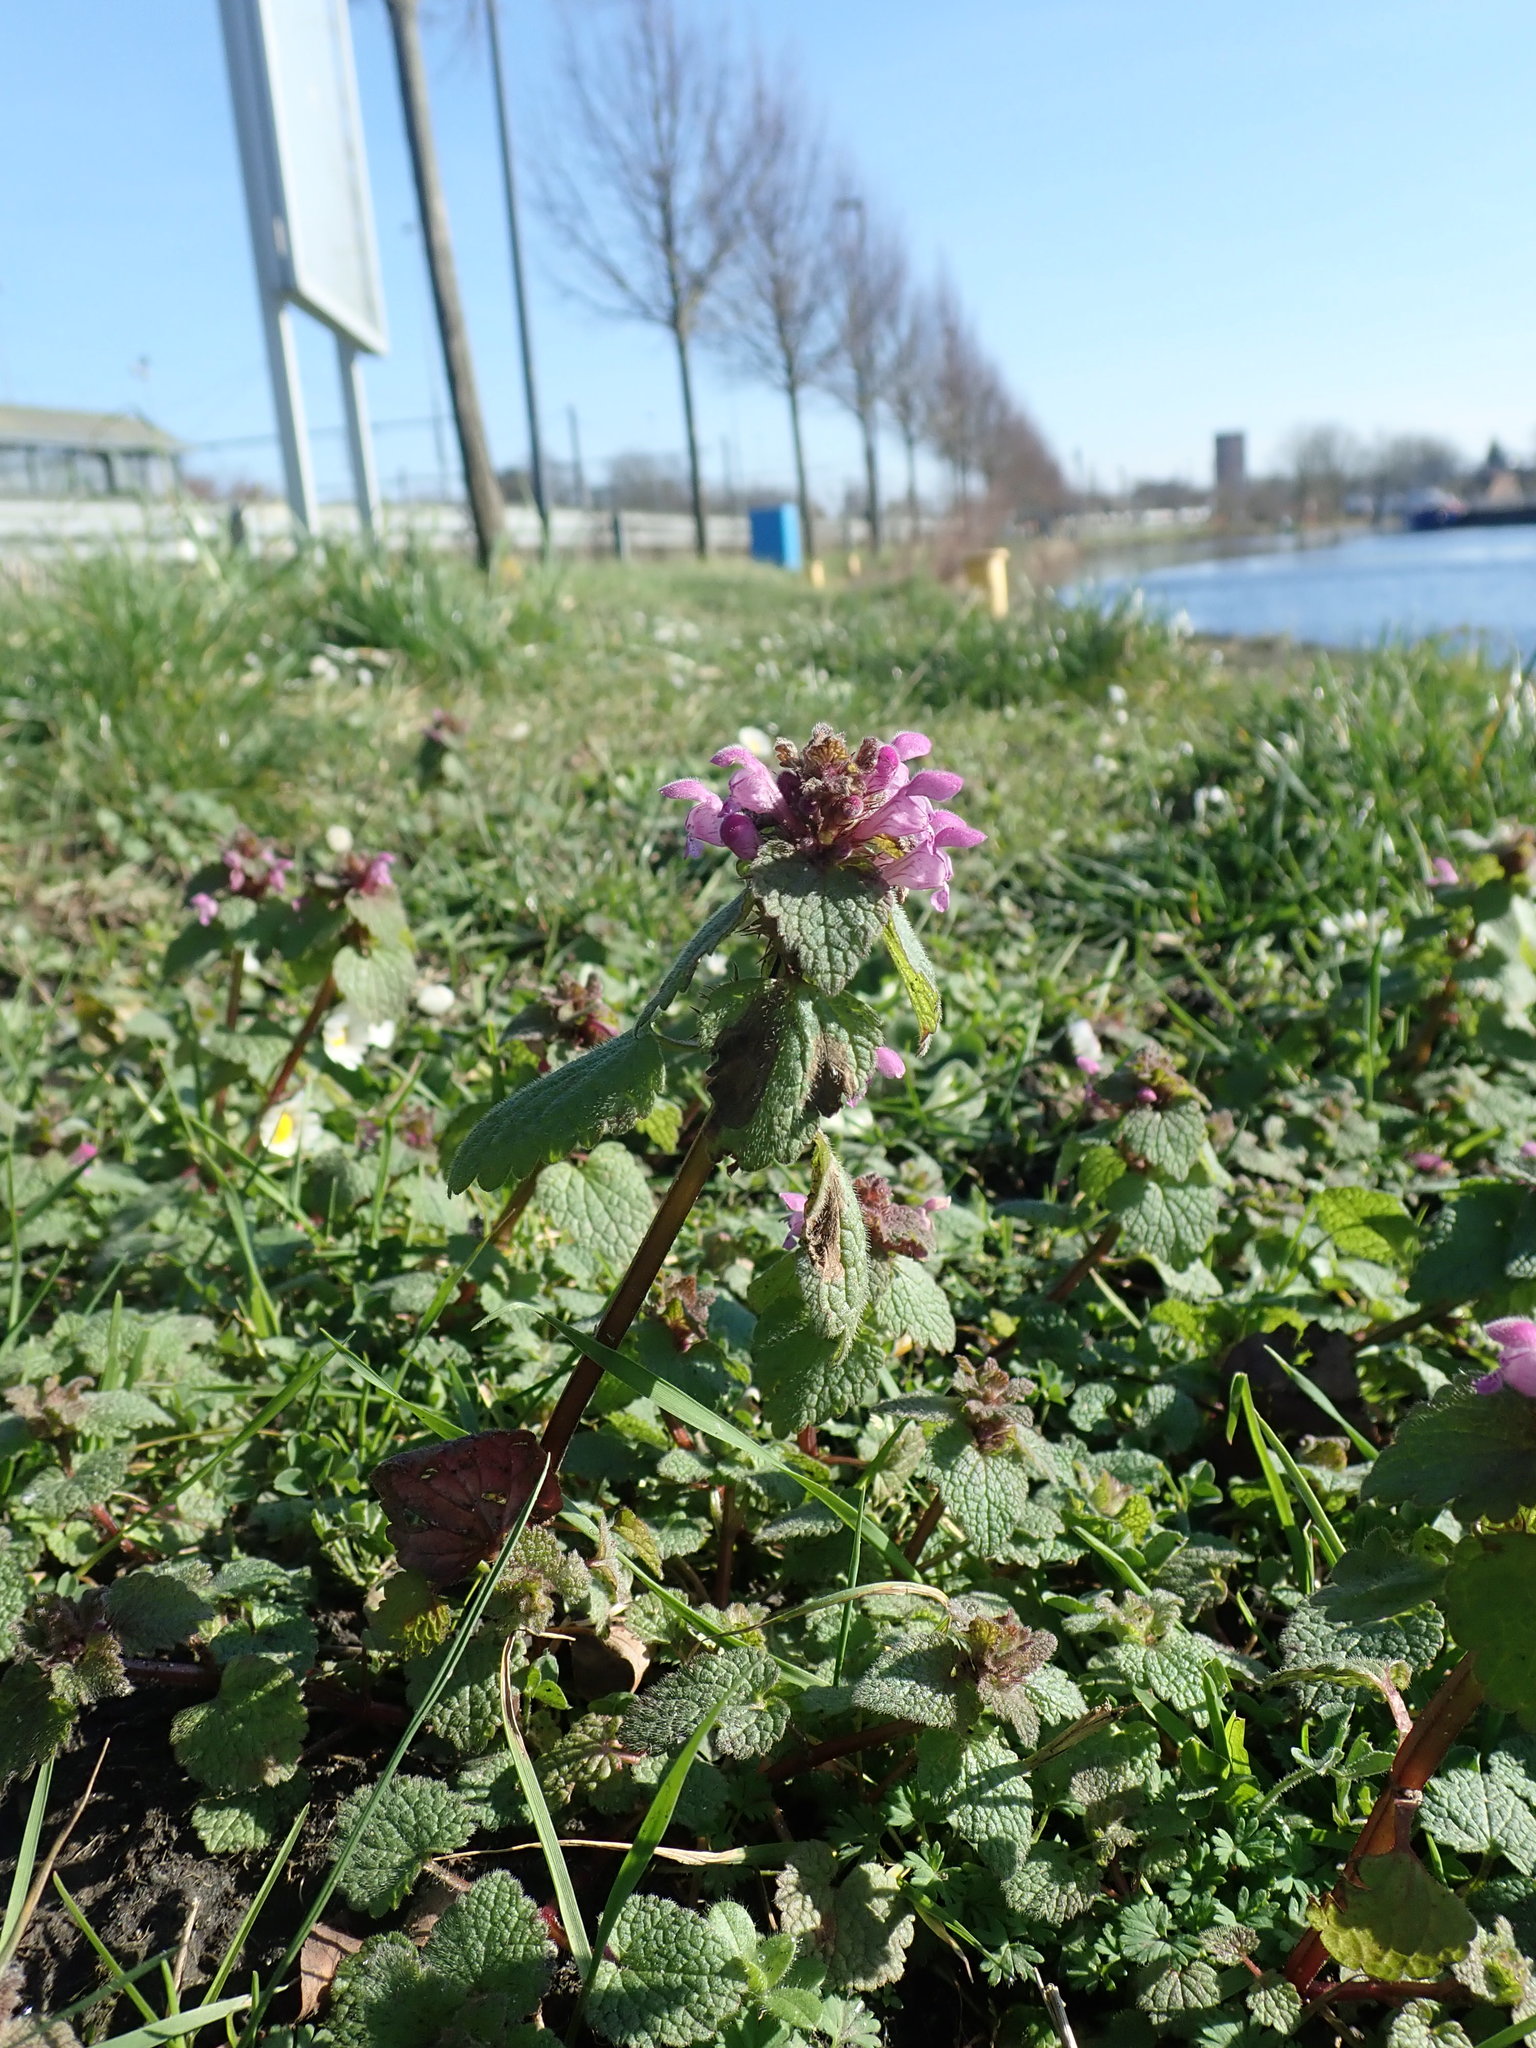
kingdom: Plantae
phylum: Tracheophyta
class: Magnoliopsida
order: Lamiales
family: Lamiaceae
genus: Lamium
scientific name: Lamium purpureum
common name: Red dead-nettle
